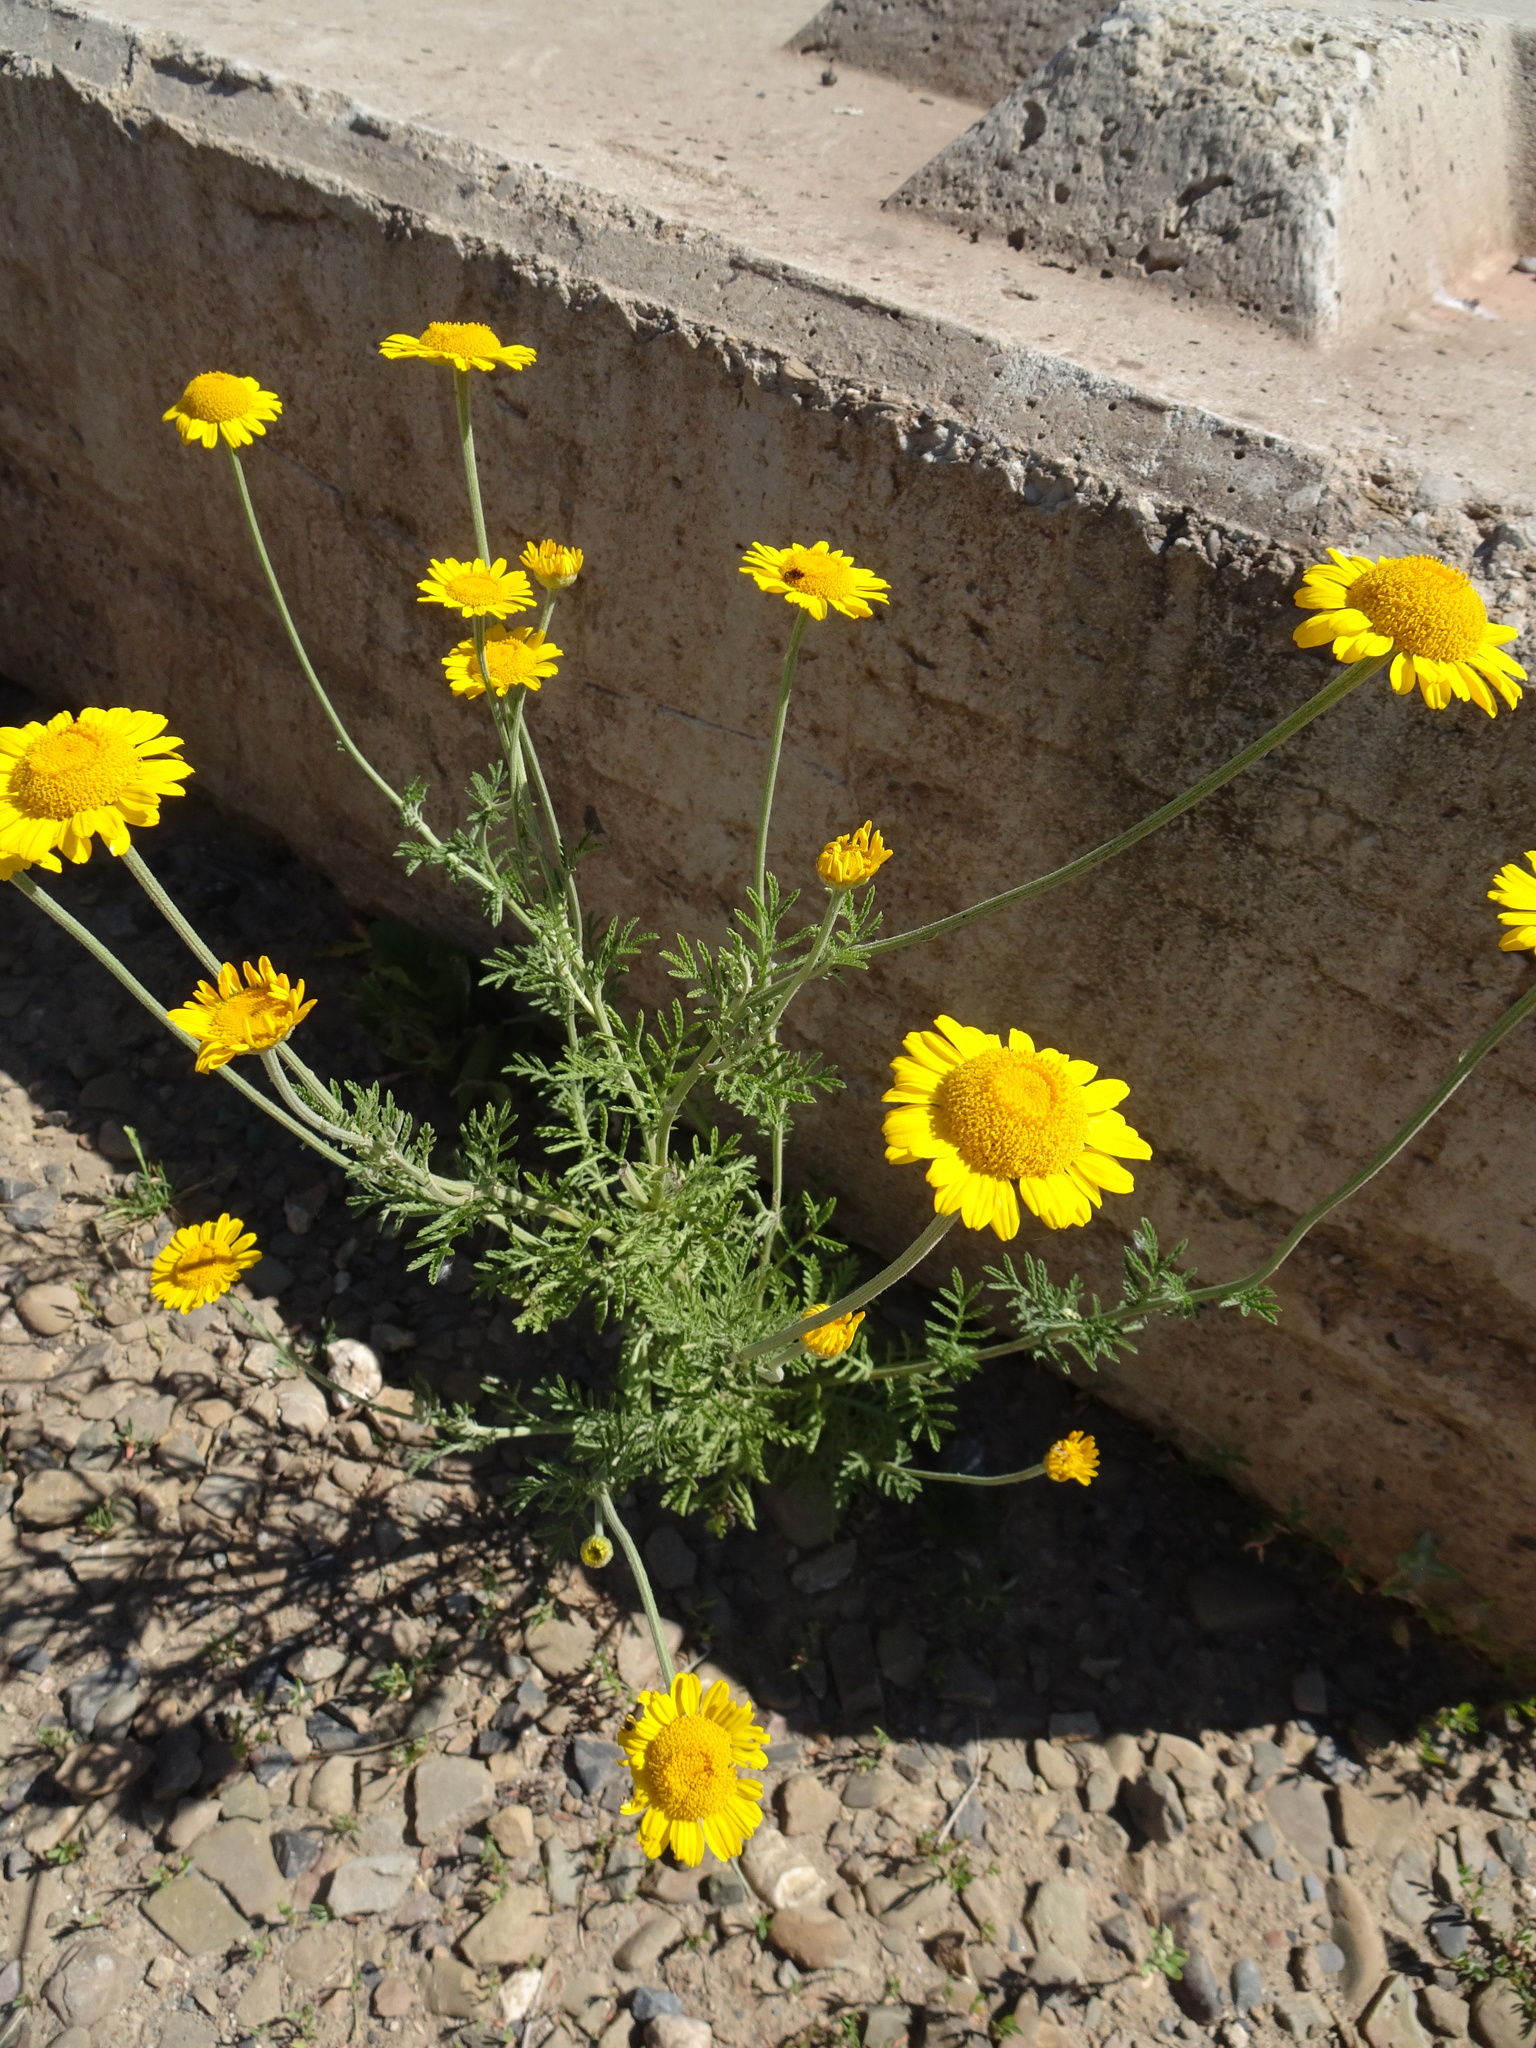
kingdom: Plantae
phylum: Tracheophyta
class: Magnoliopsida
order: Asterales
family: Asteraceae
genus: Cota
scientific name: Cota tinctoria
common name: Golden chamomile
